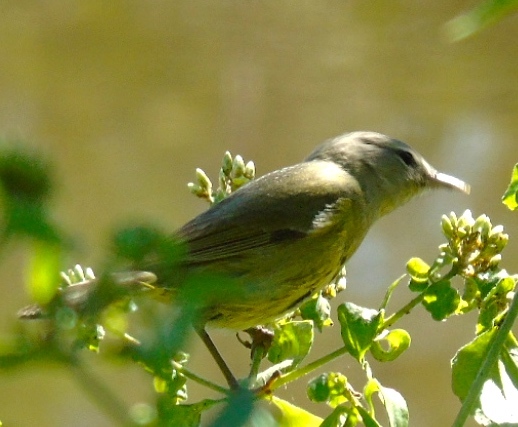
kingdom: Animalia
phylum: Chordata
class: Aves
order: Passeriformes
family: Parulidae
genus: Leiothlypis
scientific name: Leiothlypis celata
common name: Orange-crowned warbler
